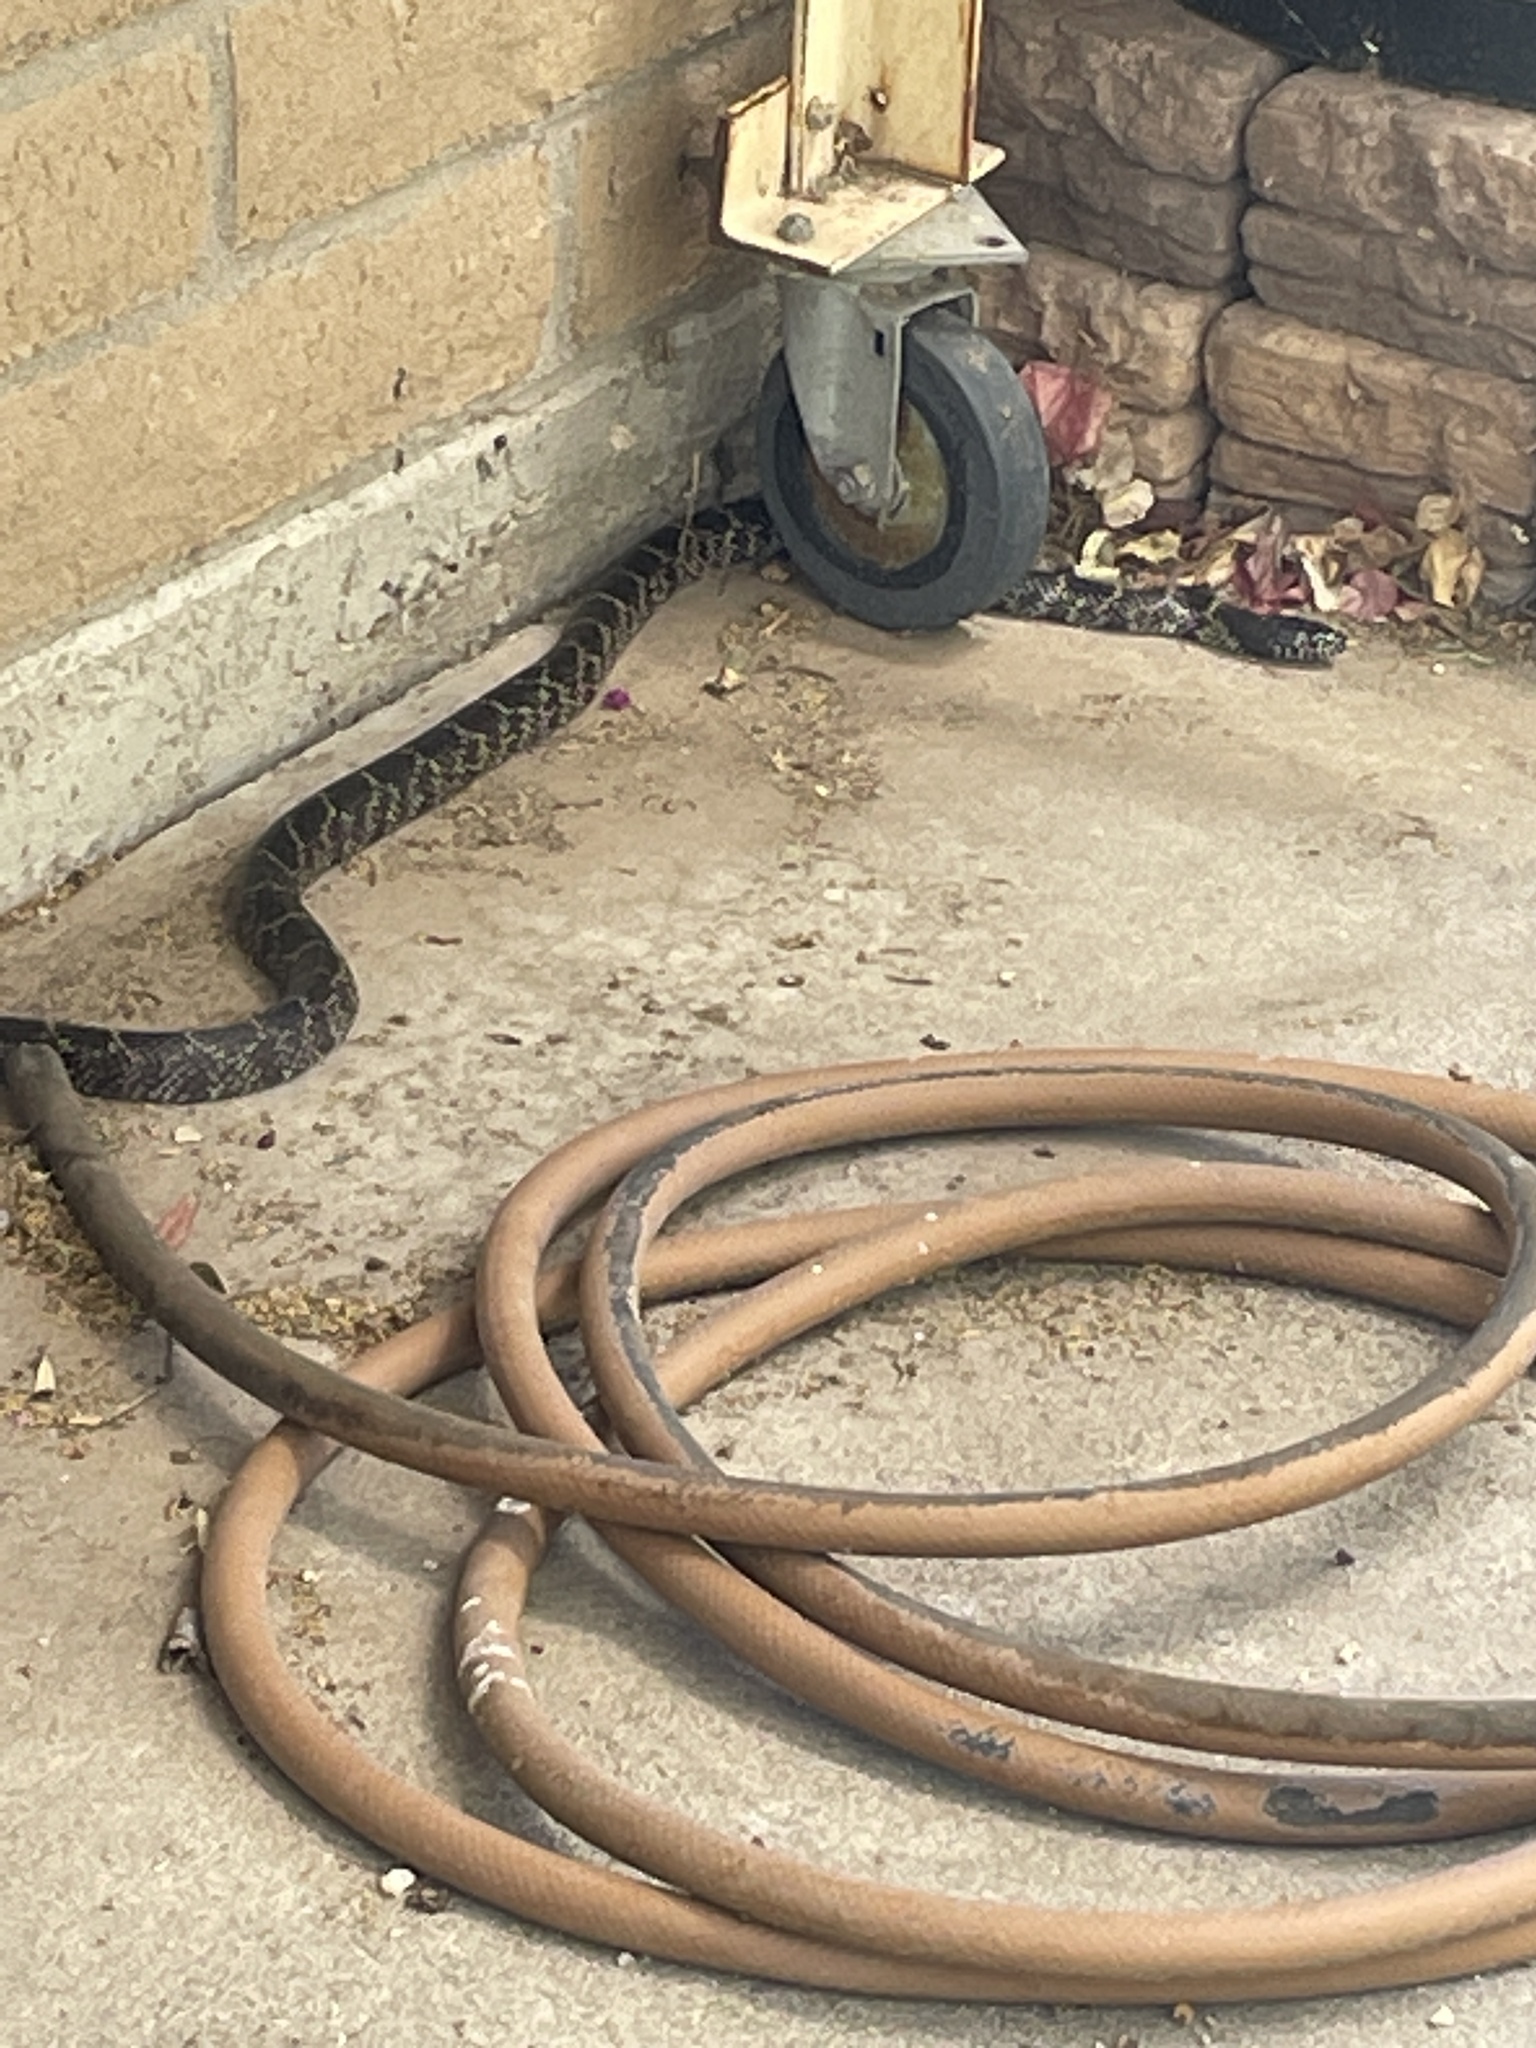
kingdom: Animalia
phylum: Chordata
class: Squamata
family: Colubridae
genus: Lampropeltis
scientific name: Lampropeltis splendida
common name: Desert kingsnake
